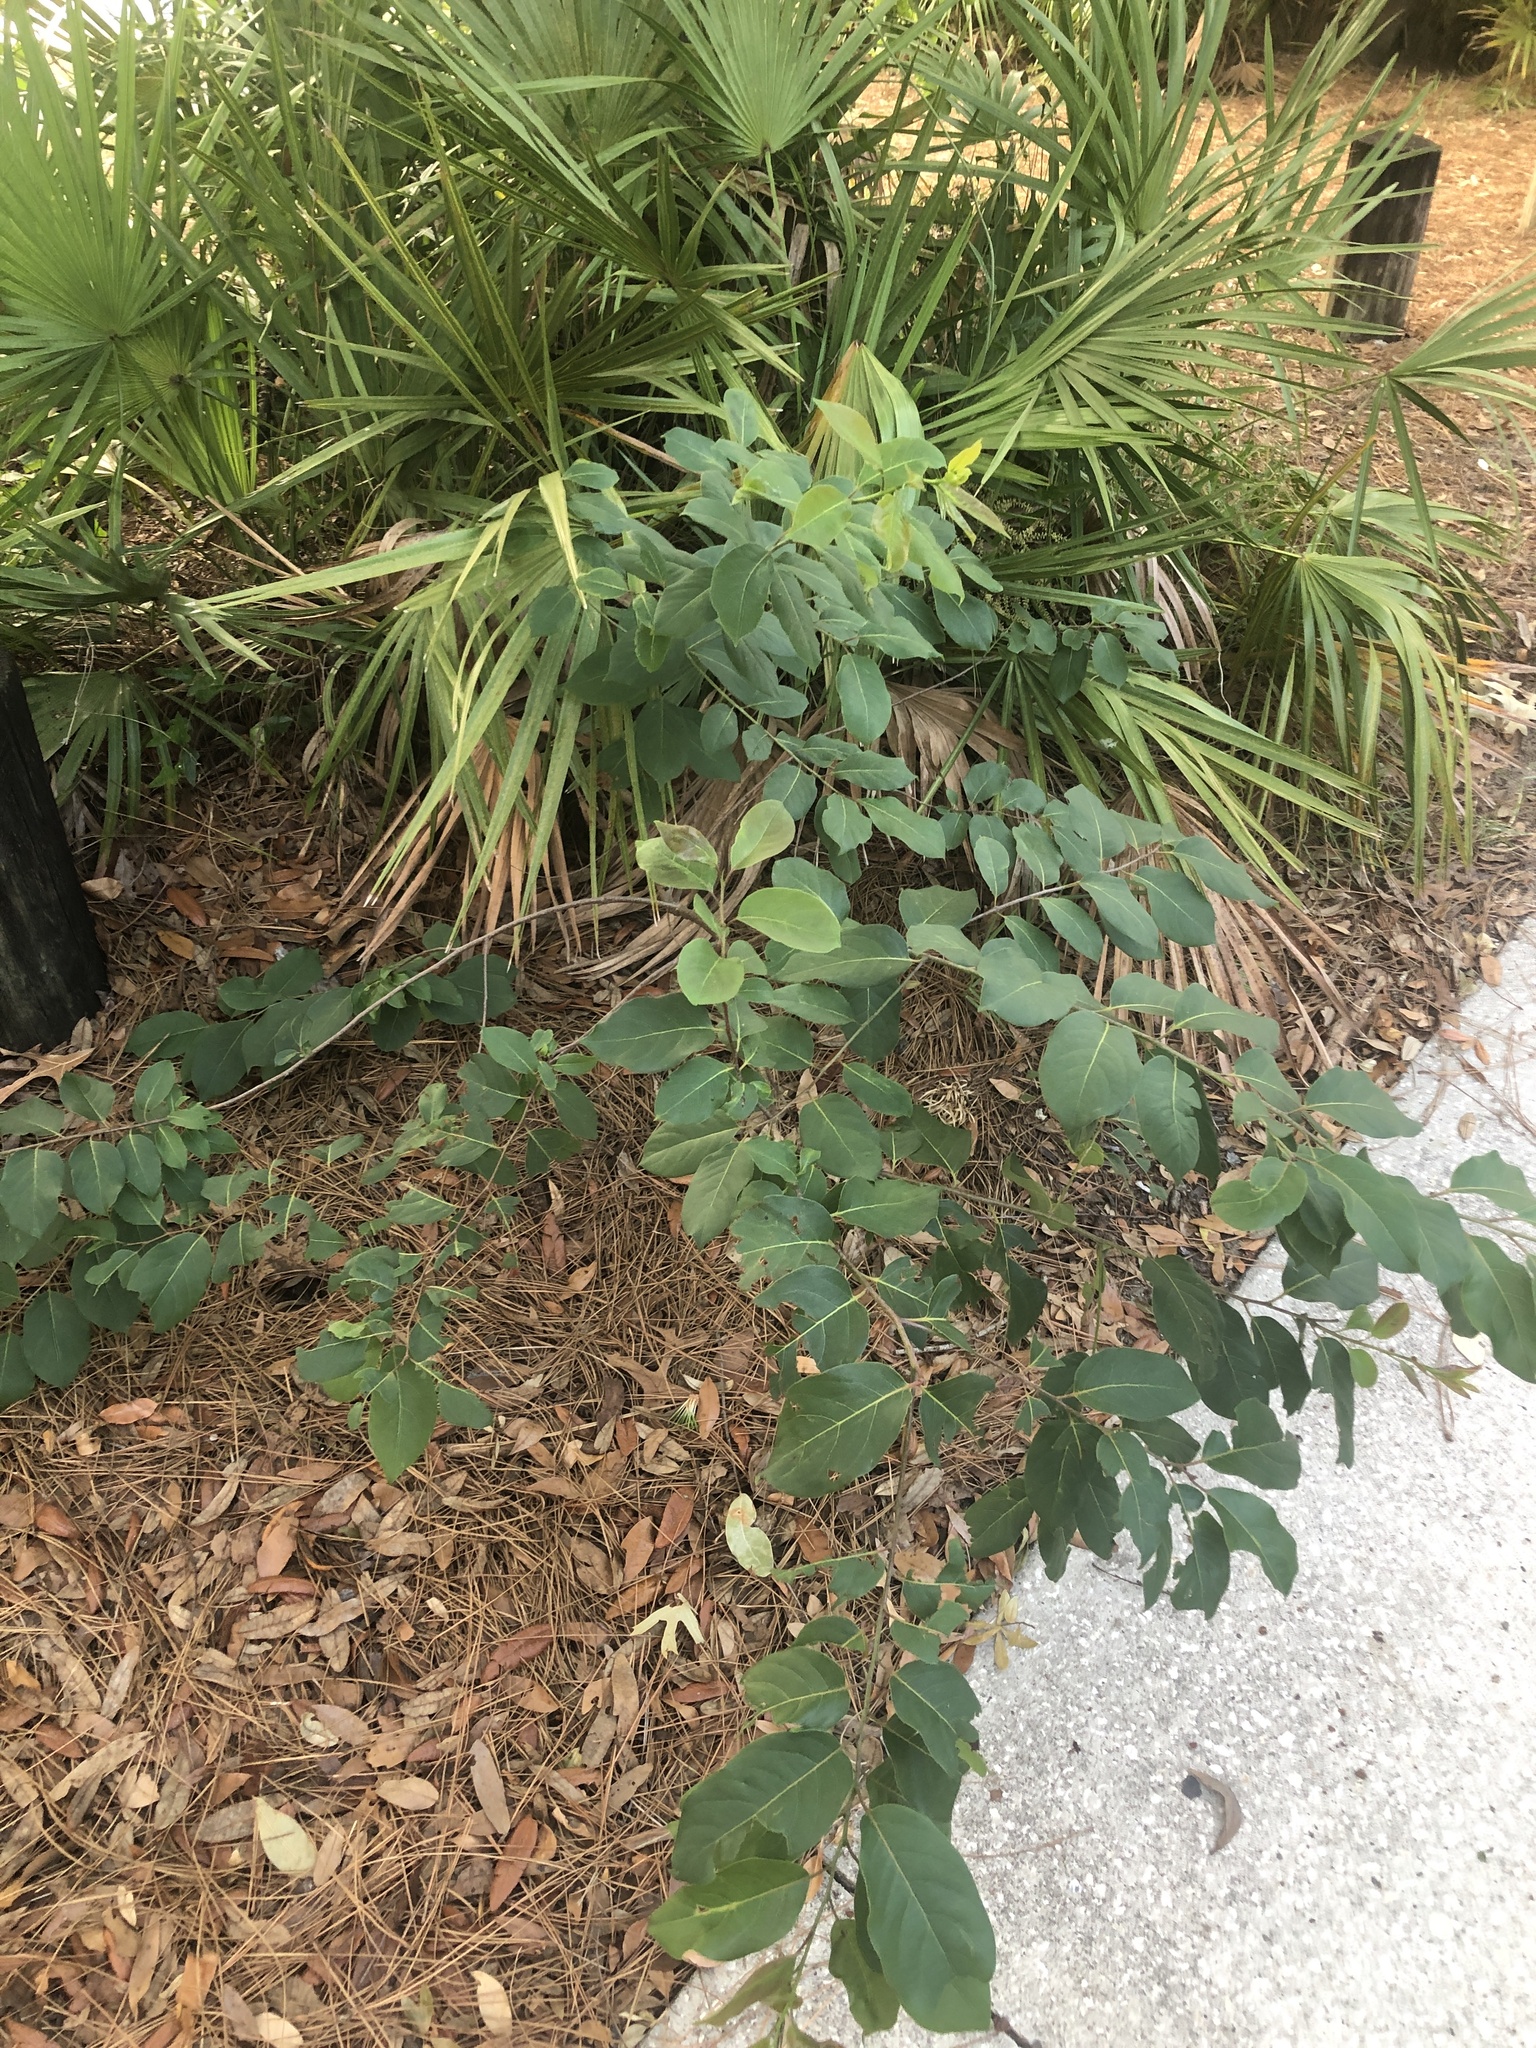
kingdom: Plantae
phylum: Tracheophyta
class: Magnoliopsida
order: Ericales
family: Ebenaceae
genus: Diospyros
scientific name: Diospyros virginiana
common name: Persimmon
